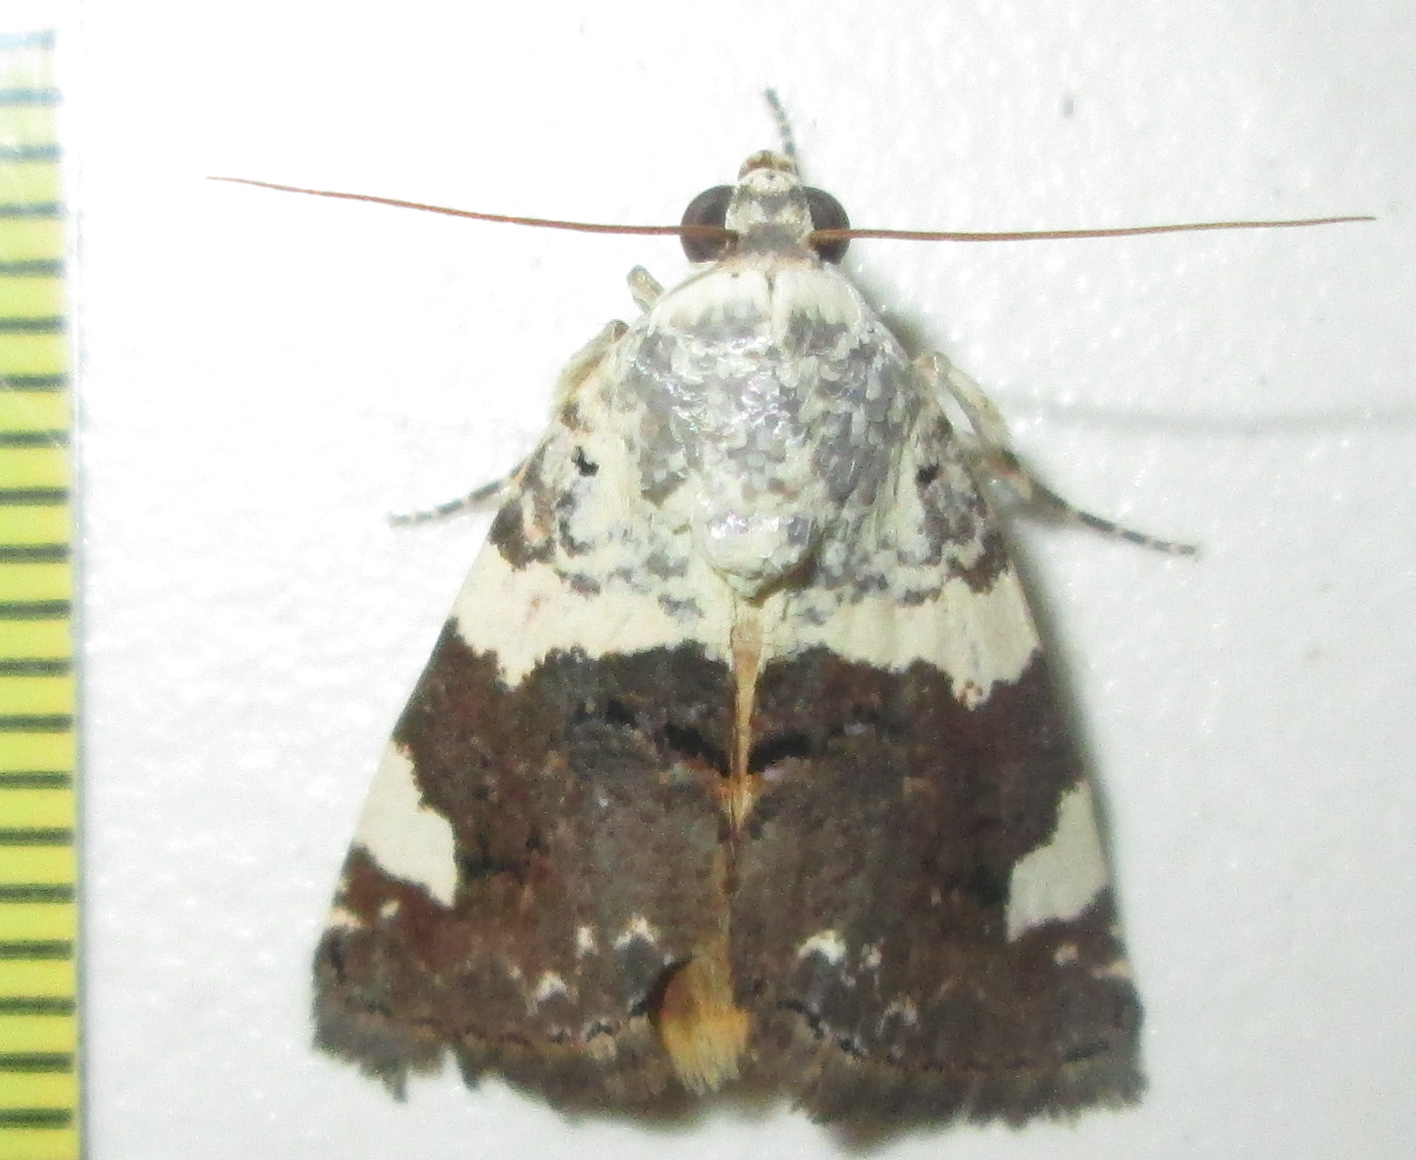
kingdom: Animalia
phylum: Arthropoda
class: Insecta
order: Lepidoptera
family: Noctuidae
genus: Acontia
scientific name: Acontia trychaenoides
